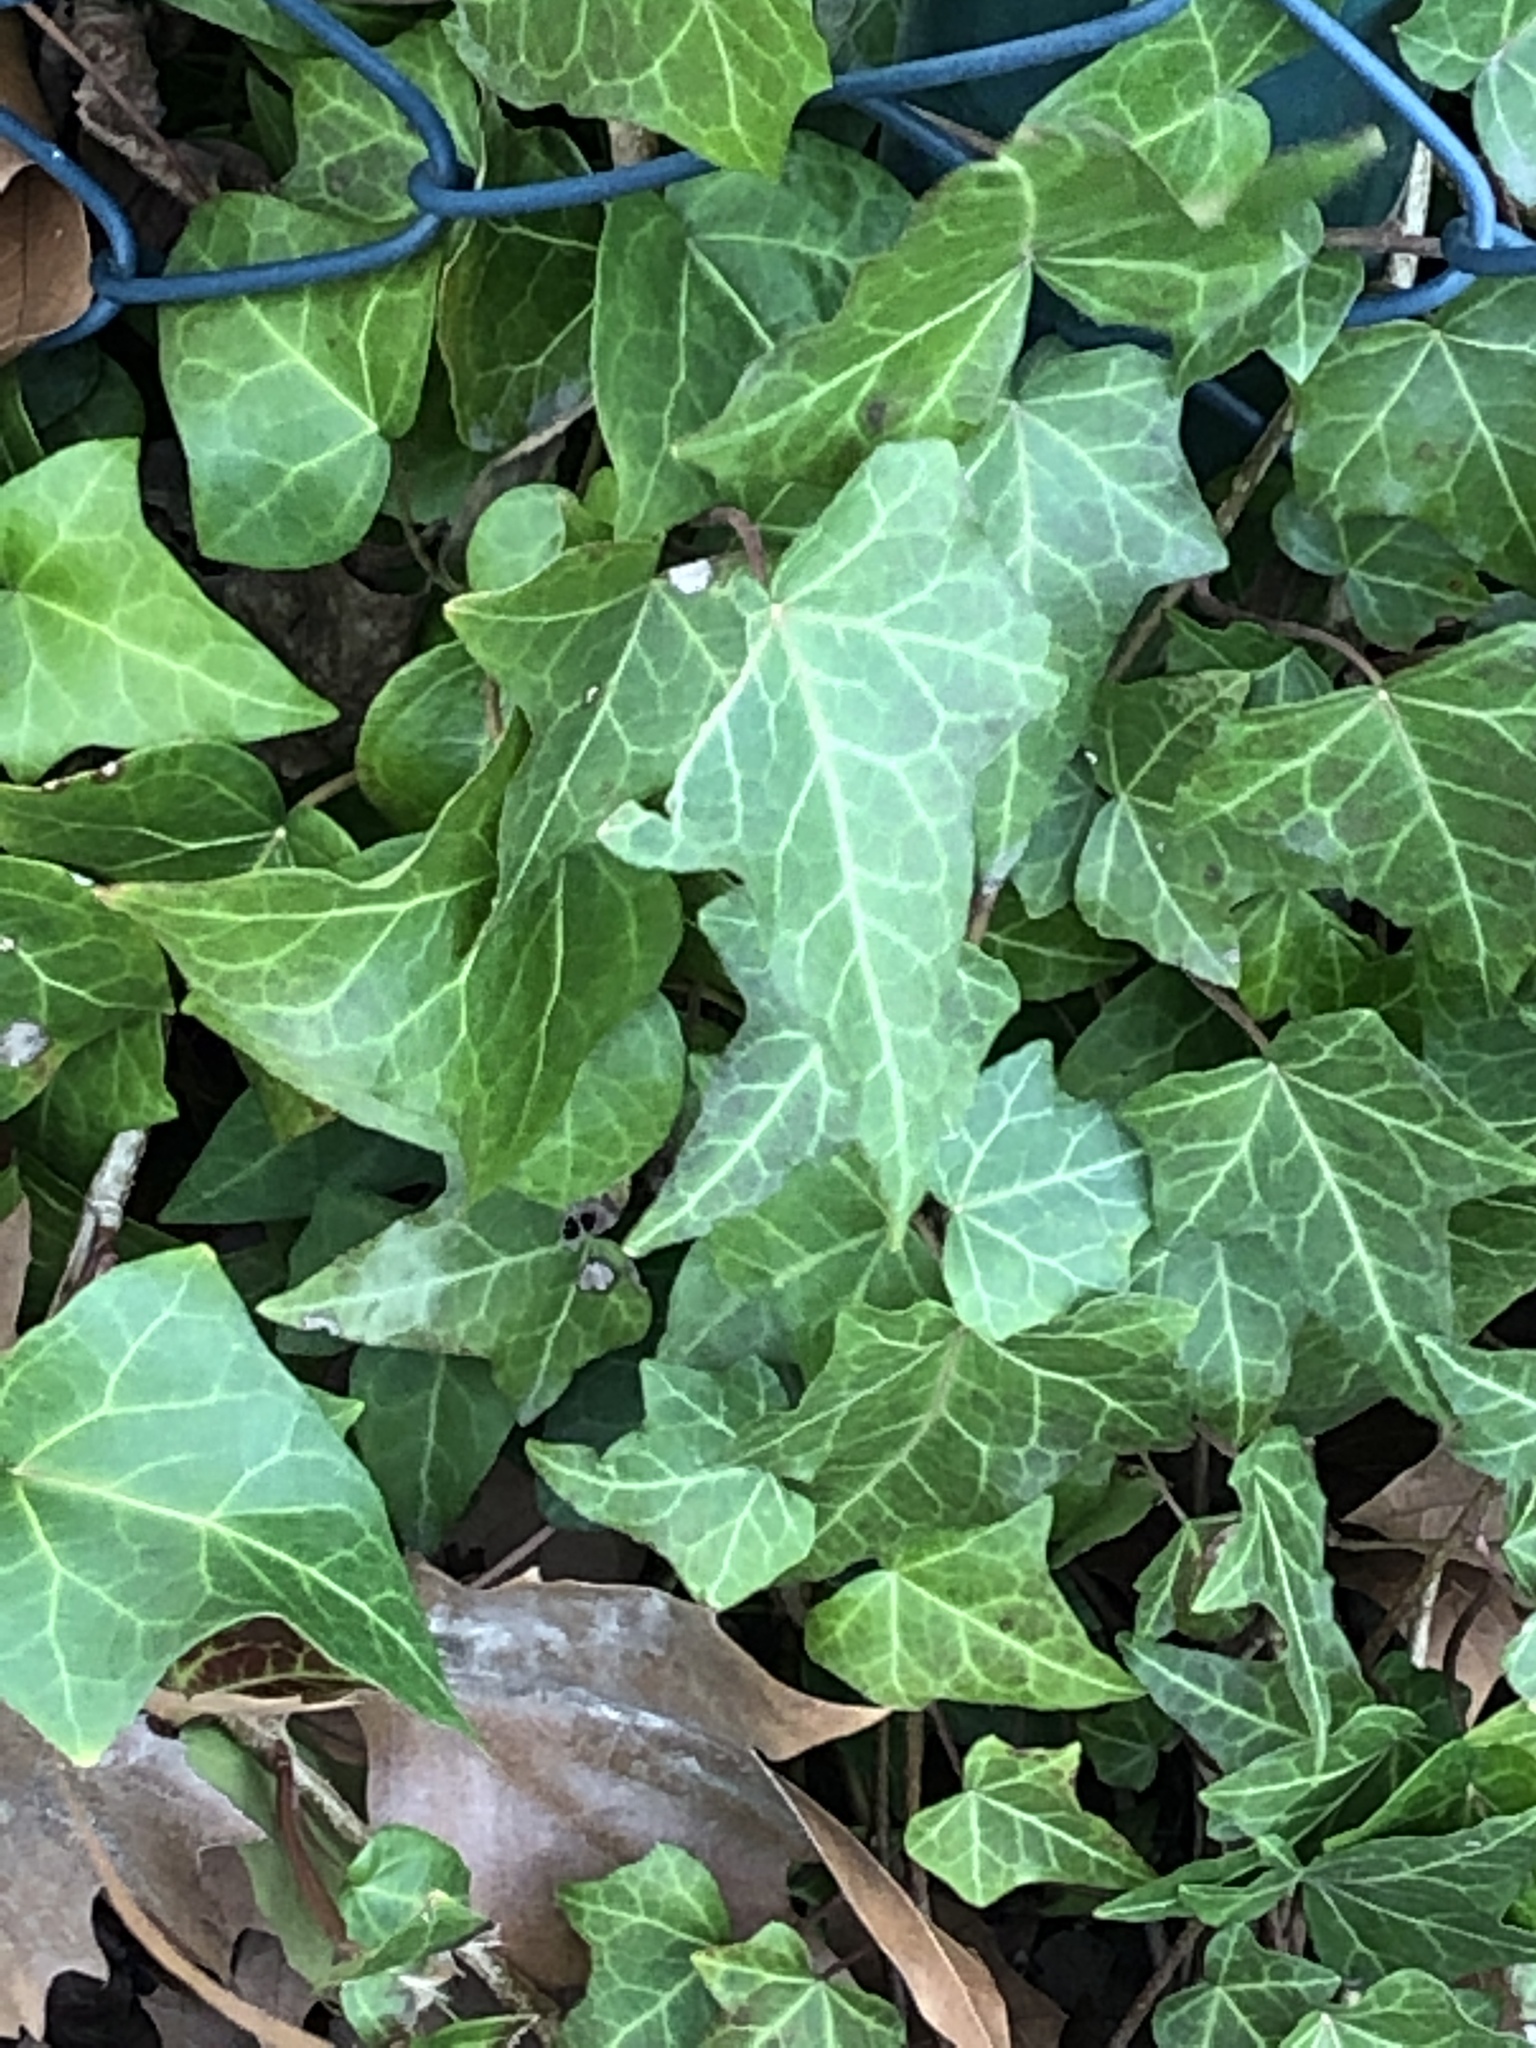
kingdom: Plantae
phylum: Tracheophyta
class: Magnoliopsida
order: Apiales
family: Araliaceae
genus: Hedera
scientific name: Hedera helix
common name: Ivy
